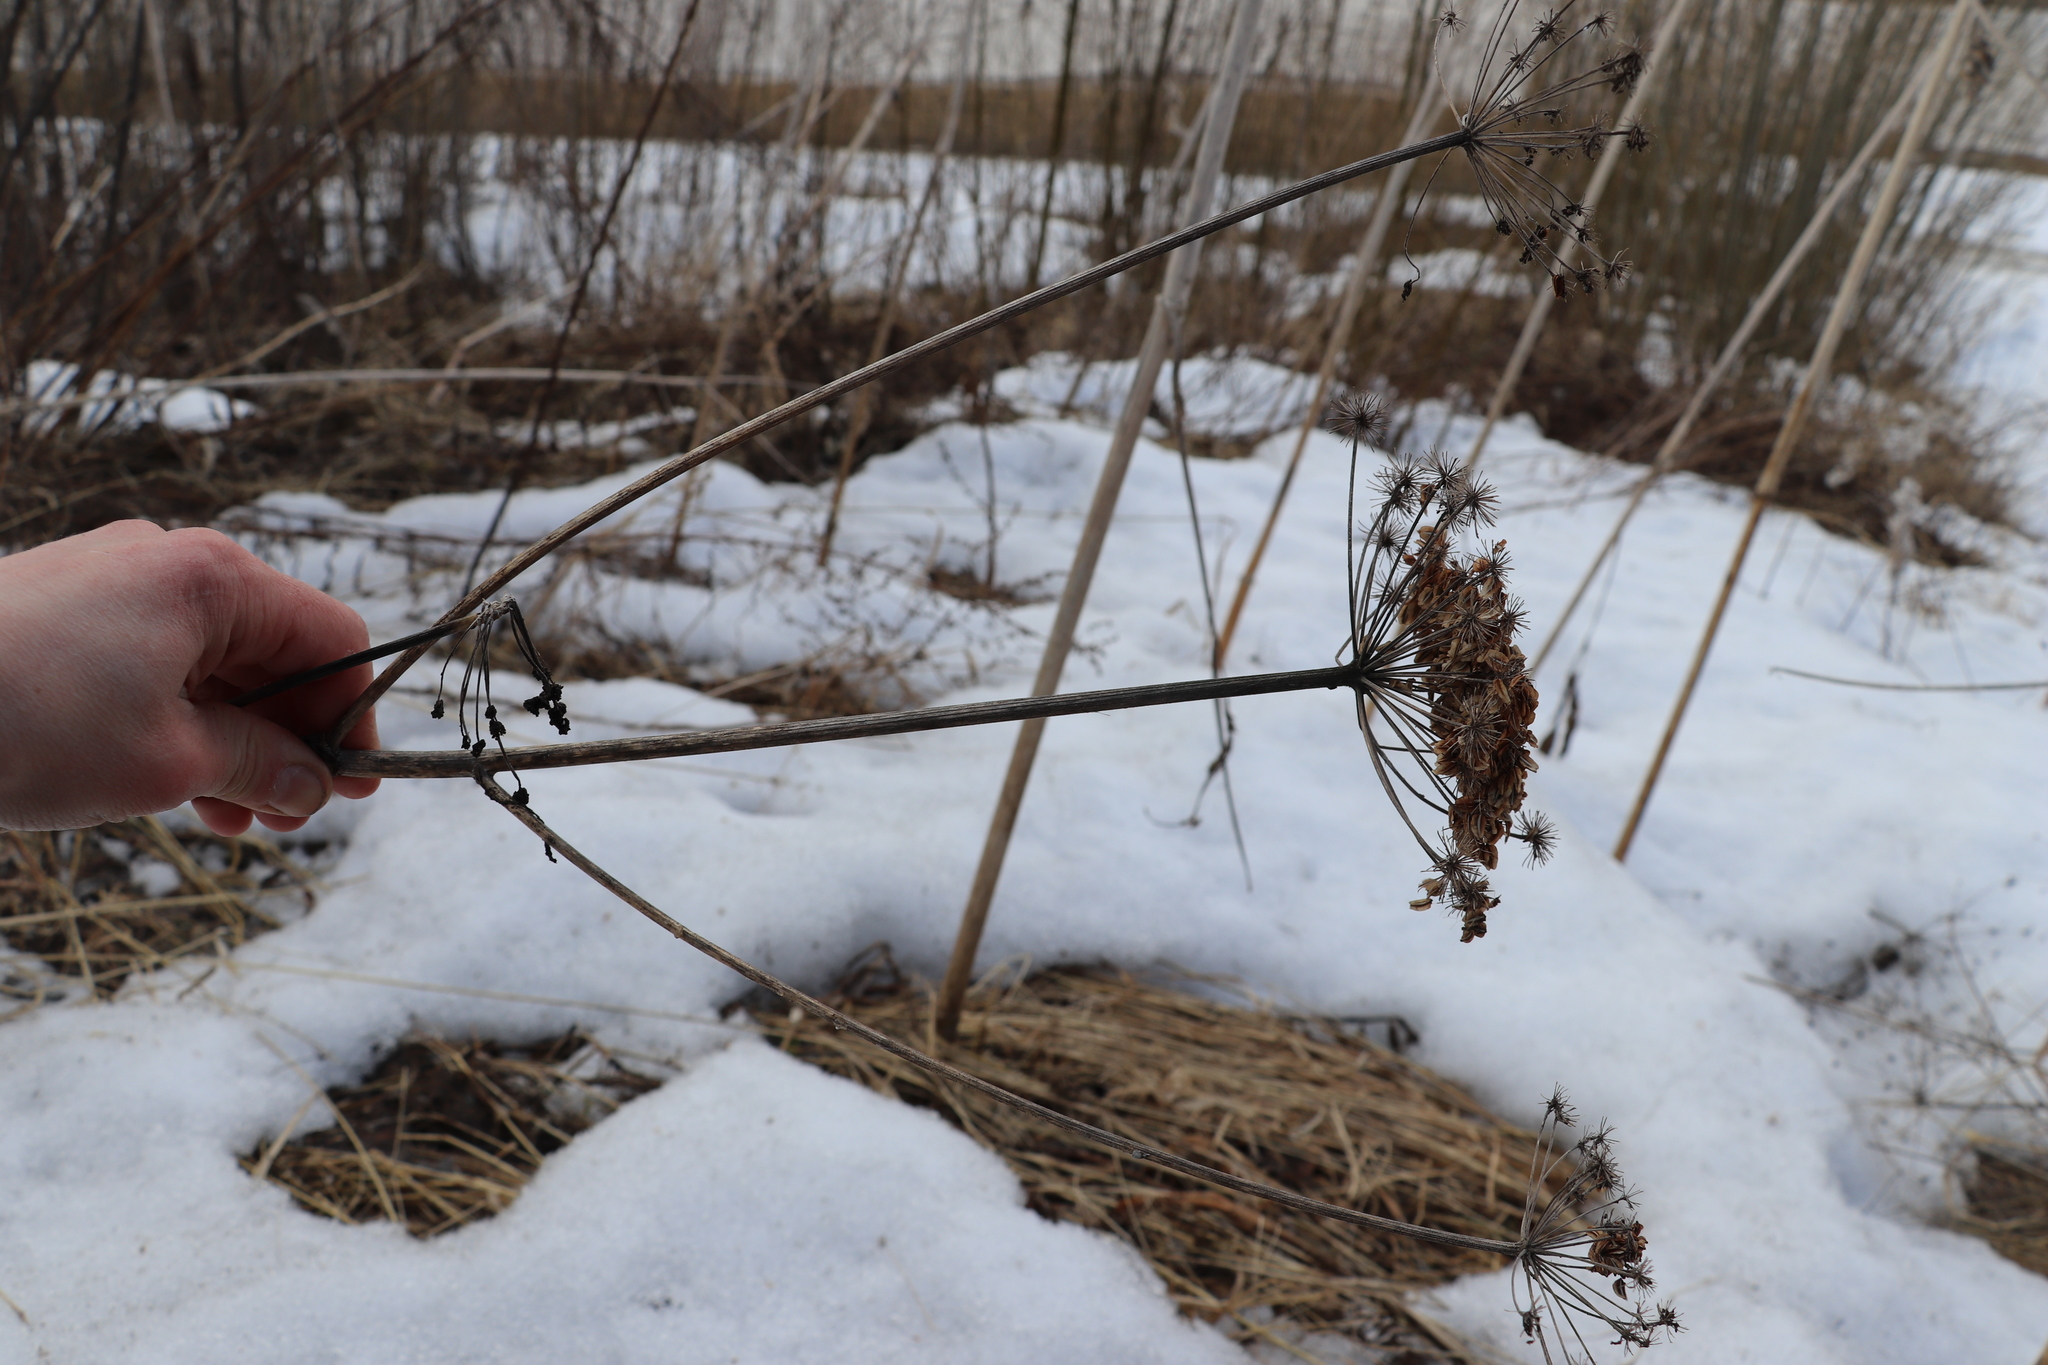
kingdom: Plantae
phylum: Tracheophyta
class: Magnoliopsida
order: Apiales
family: Apiaceae
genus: Angelica
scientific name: Angelica sylvestris
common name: Wild angelica
